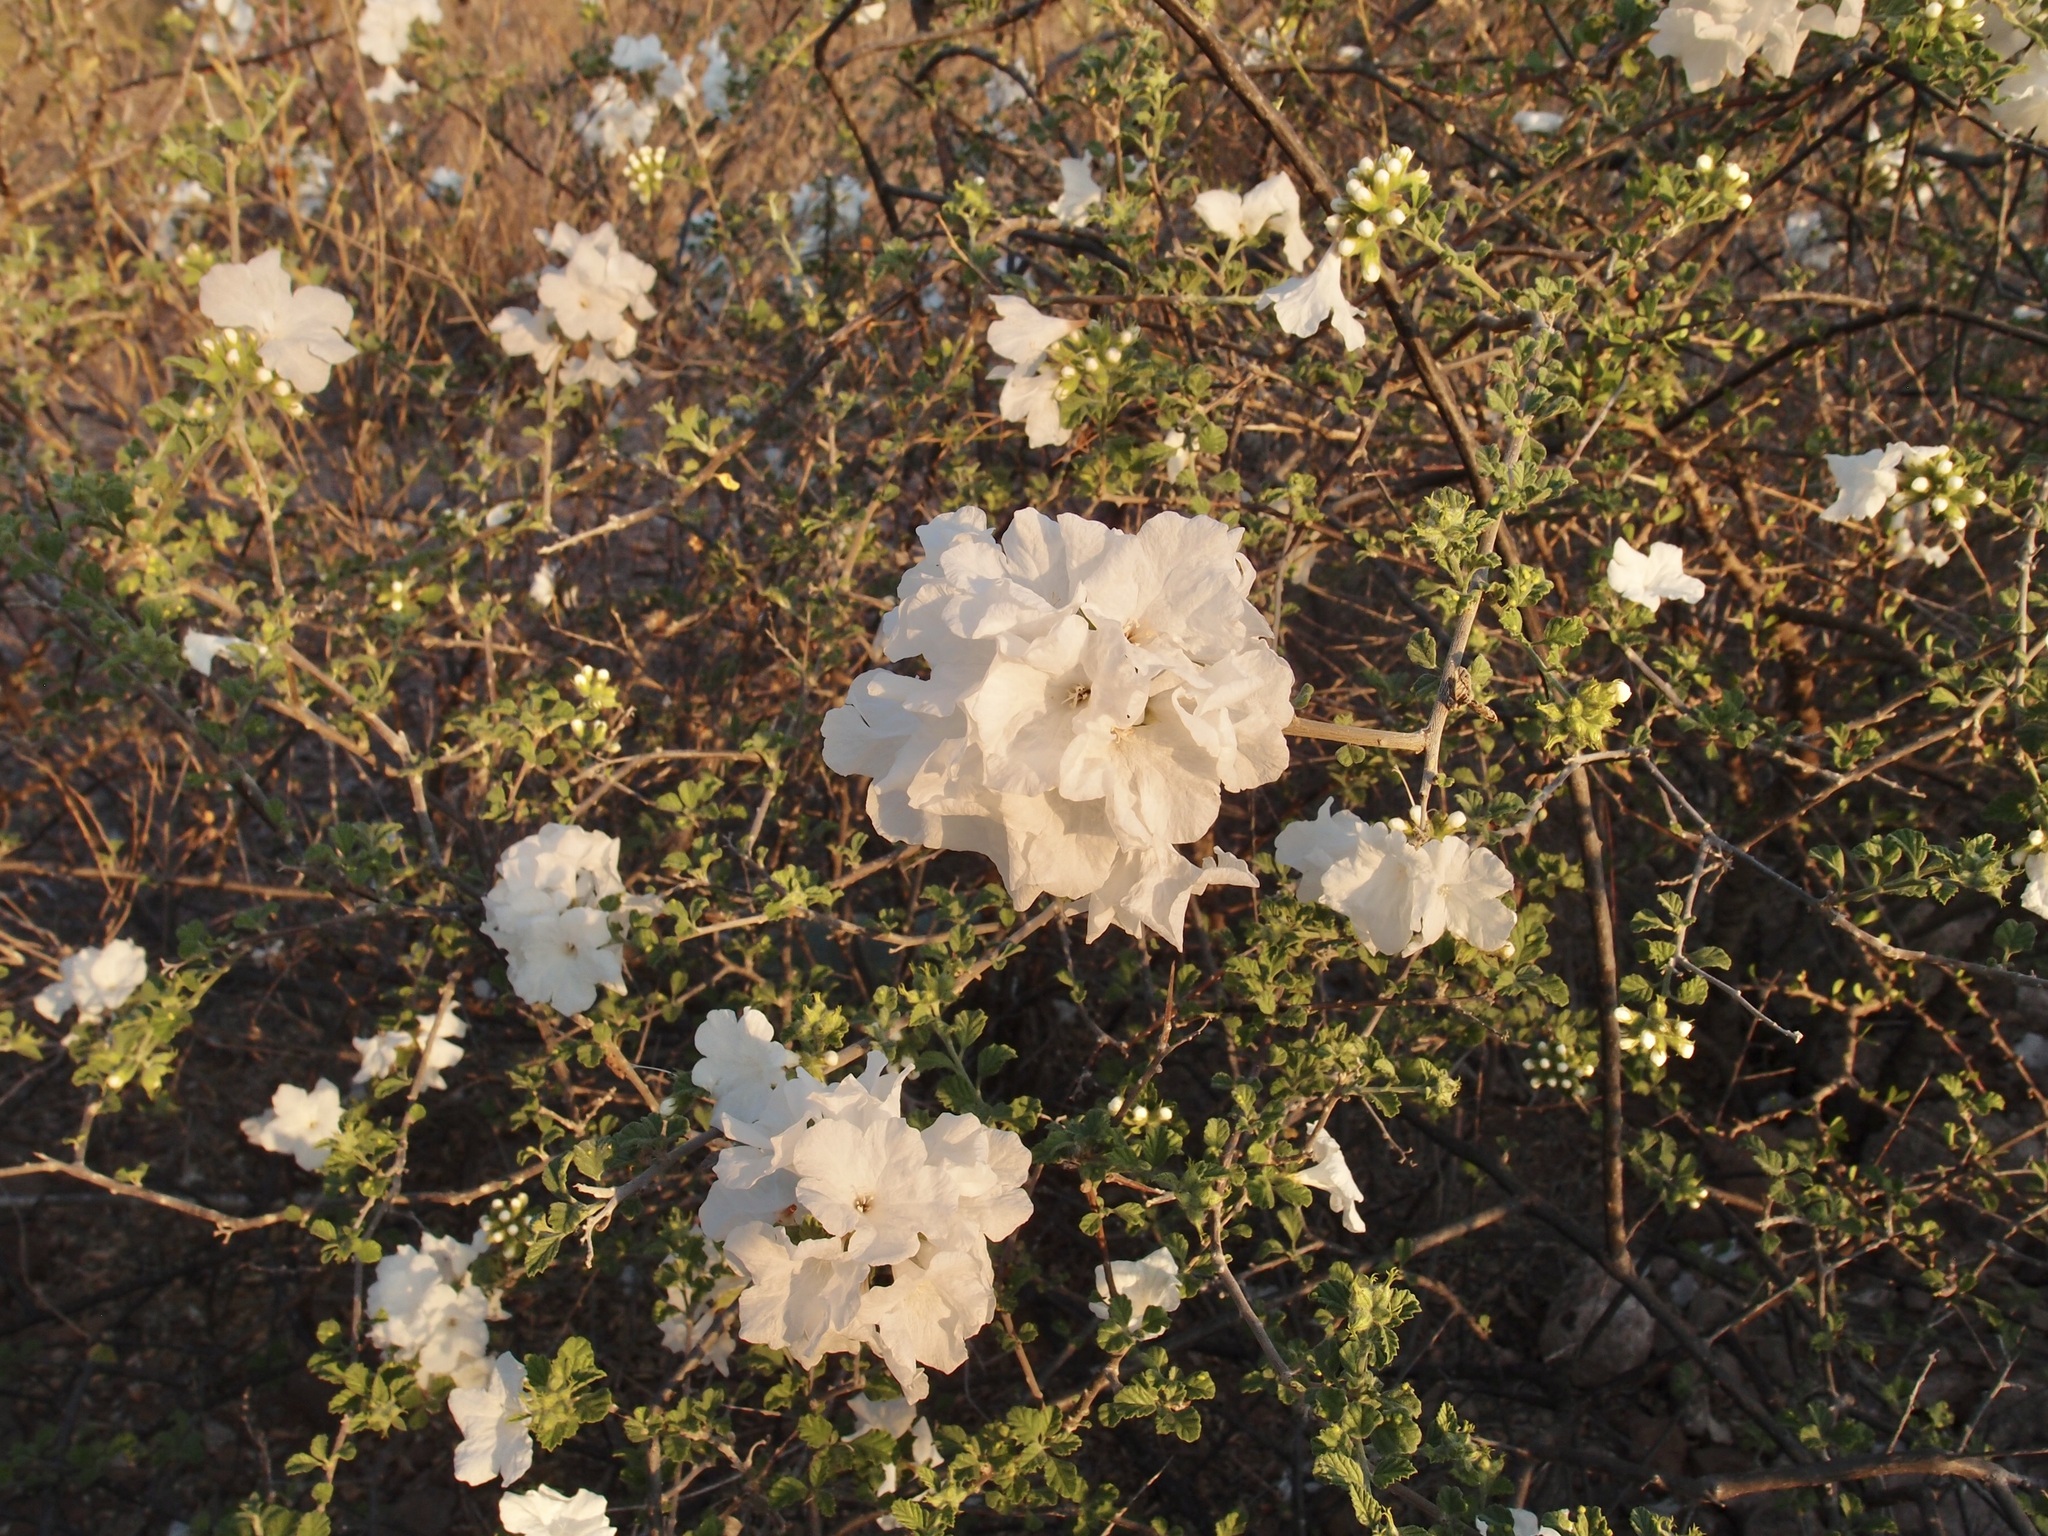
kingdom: Plantae
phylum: Tracheophyta
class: Magnoliopsida
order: Boraginales
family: Cordiaceae
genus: Cordia
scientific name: Cordia parvifolia
